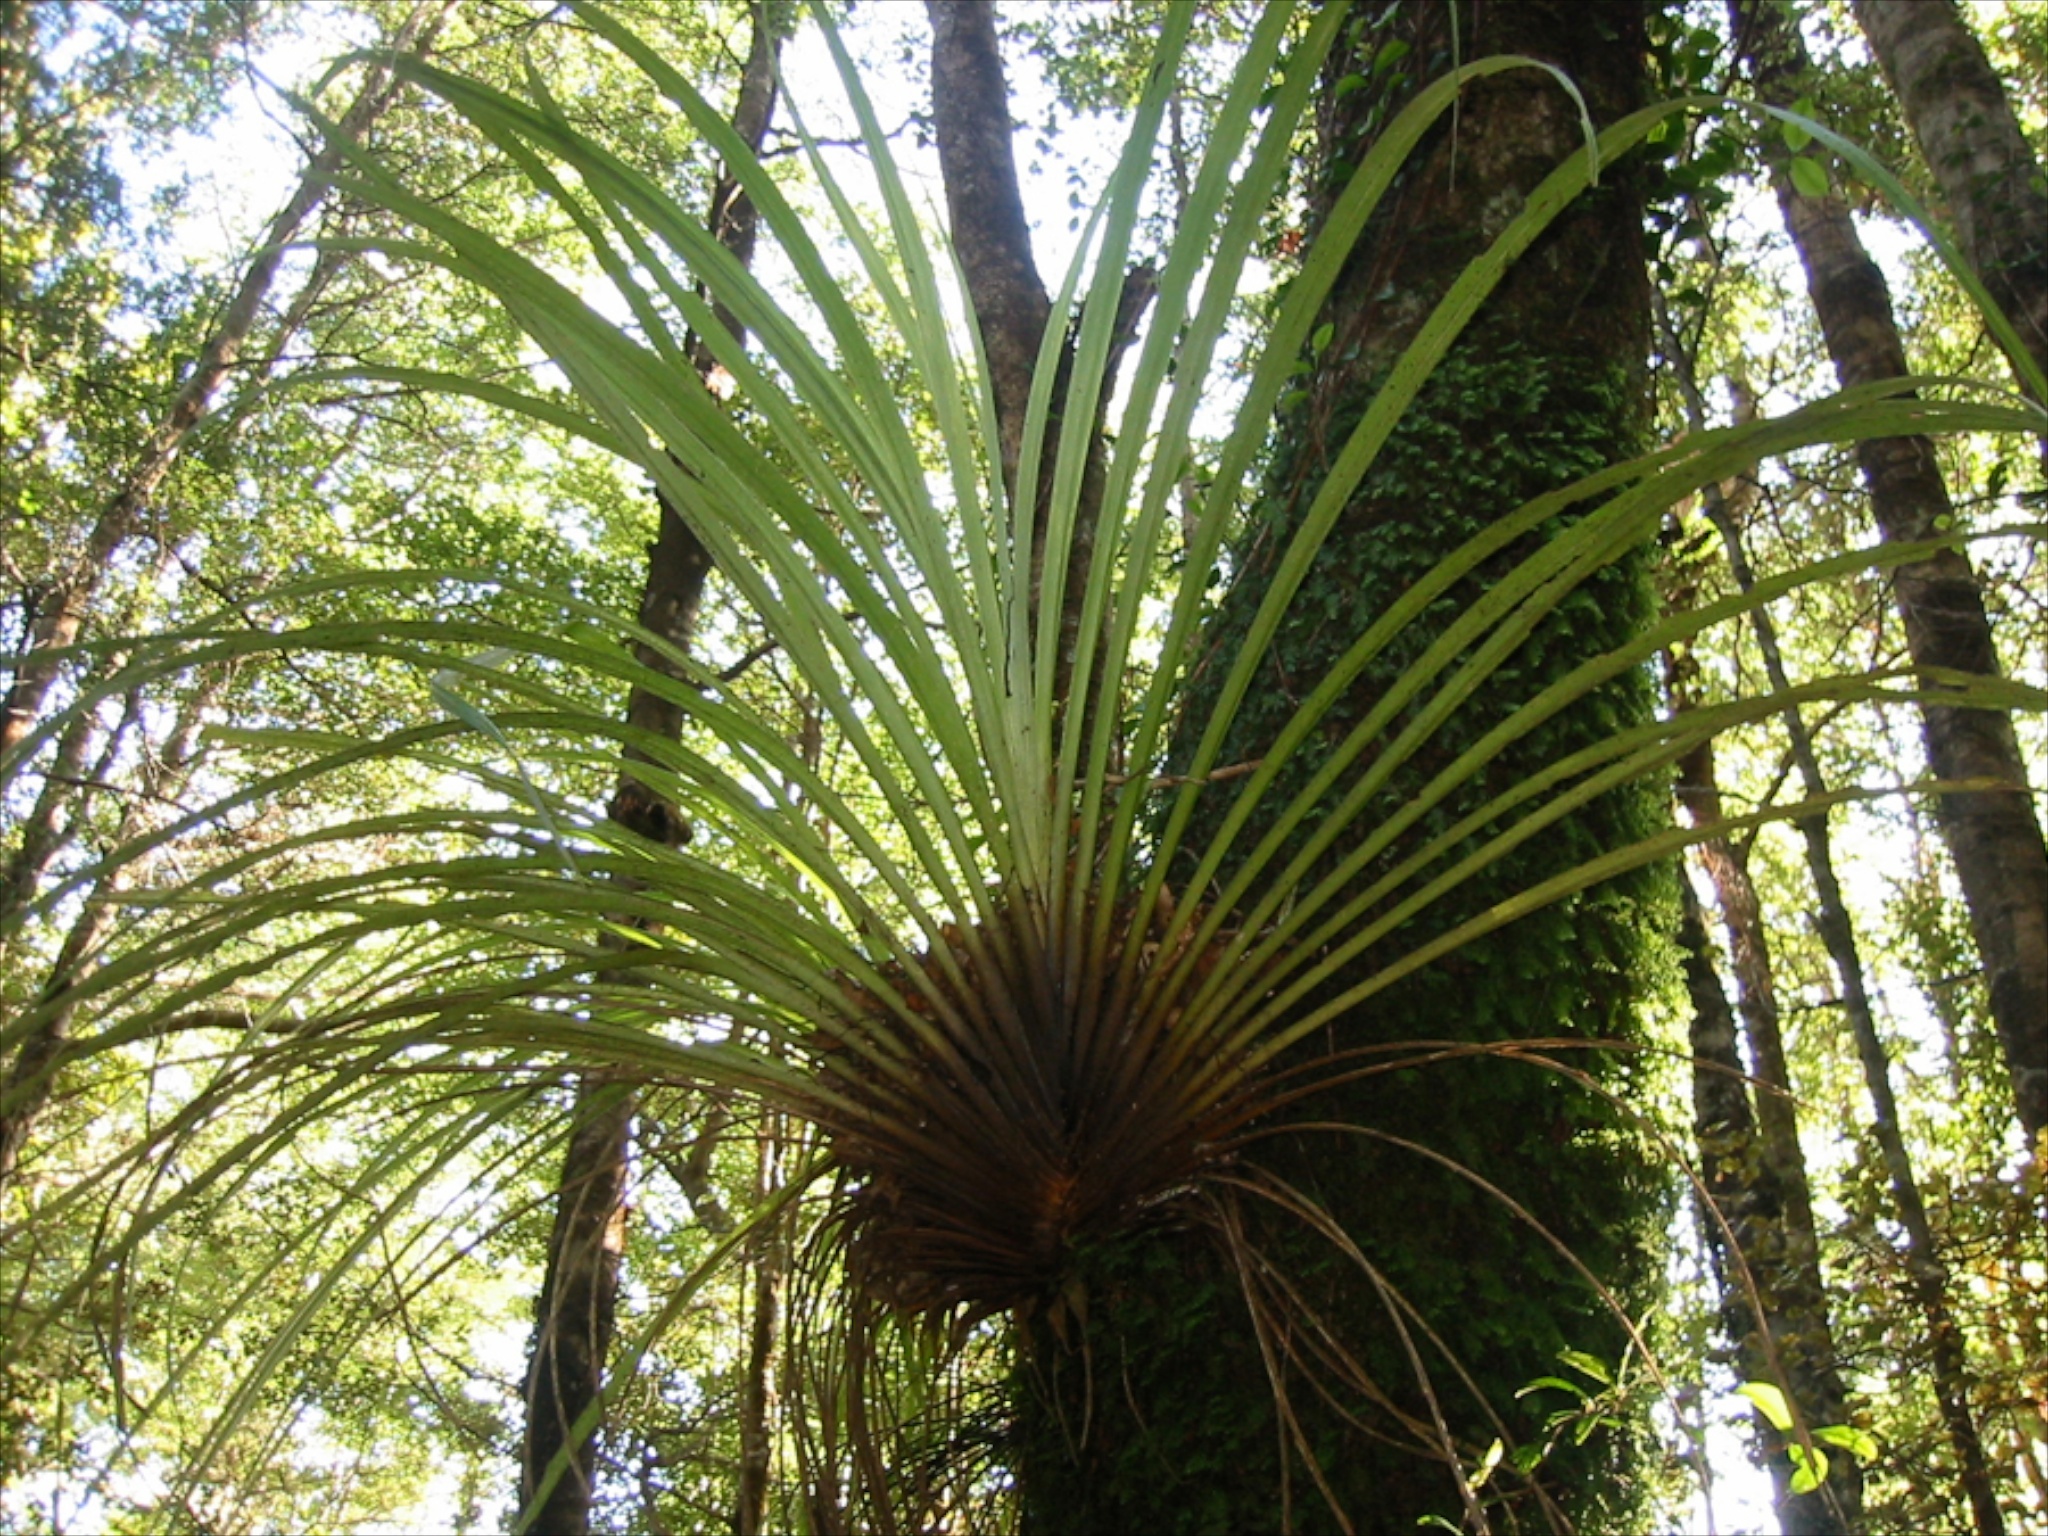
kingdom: Plantae
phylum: Tracheophyta
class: Liliopsida
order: Asparagales
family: Asteliaceae
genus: Astelia
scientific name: Astelia hastata
